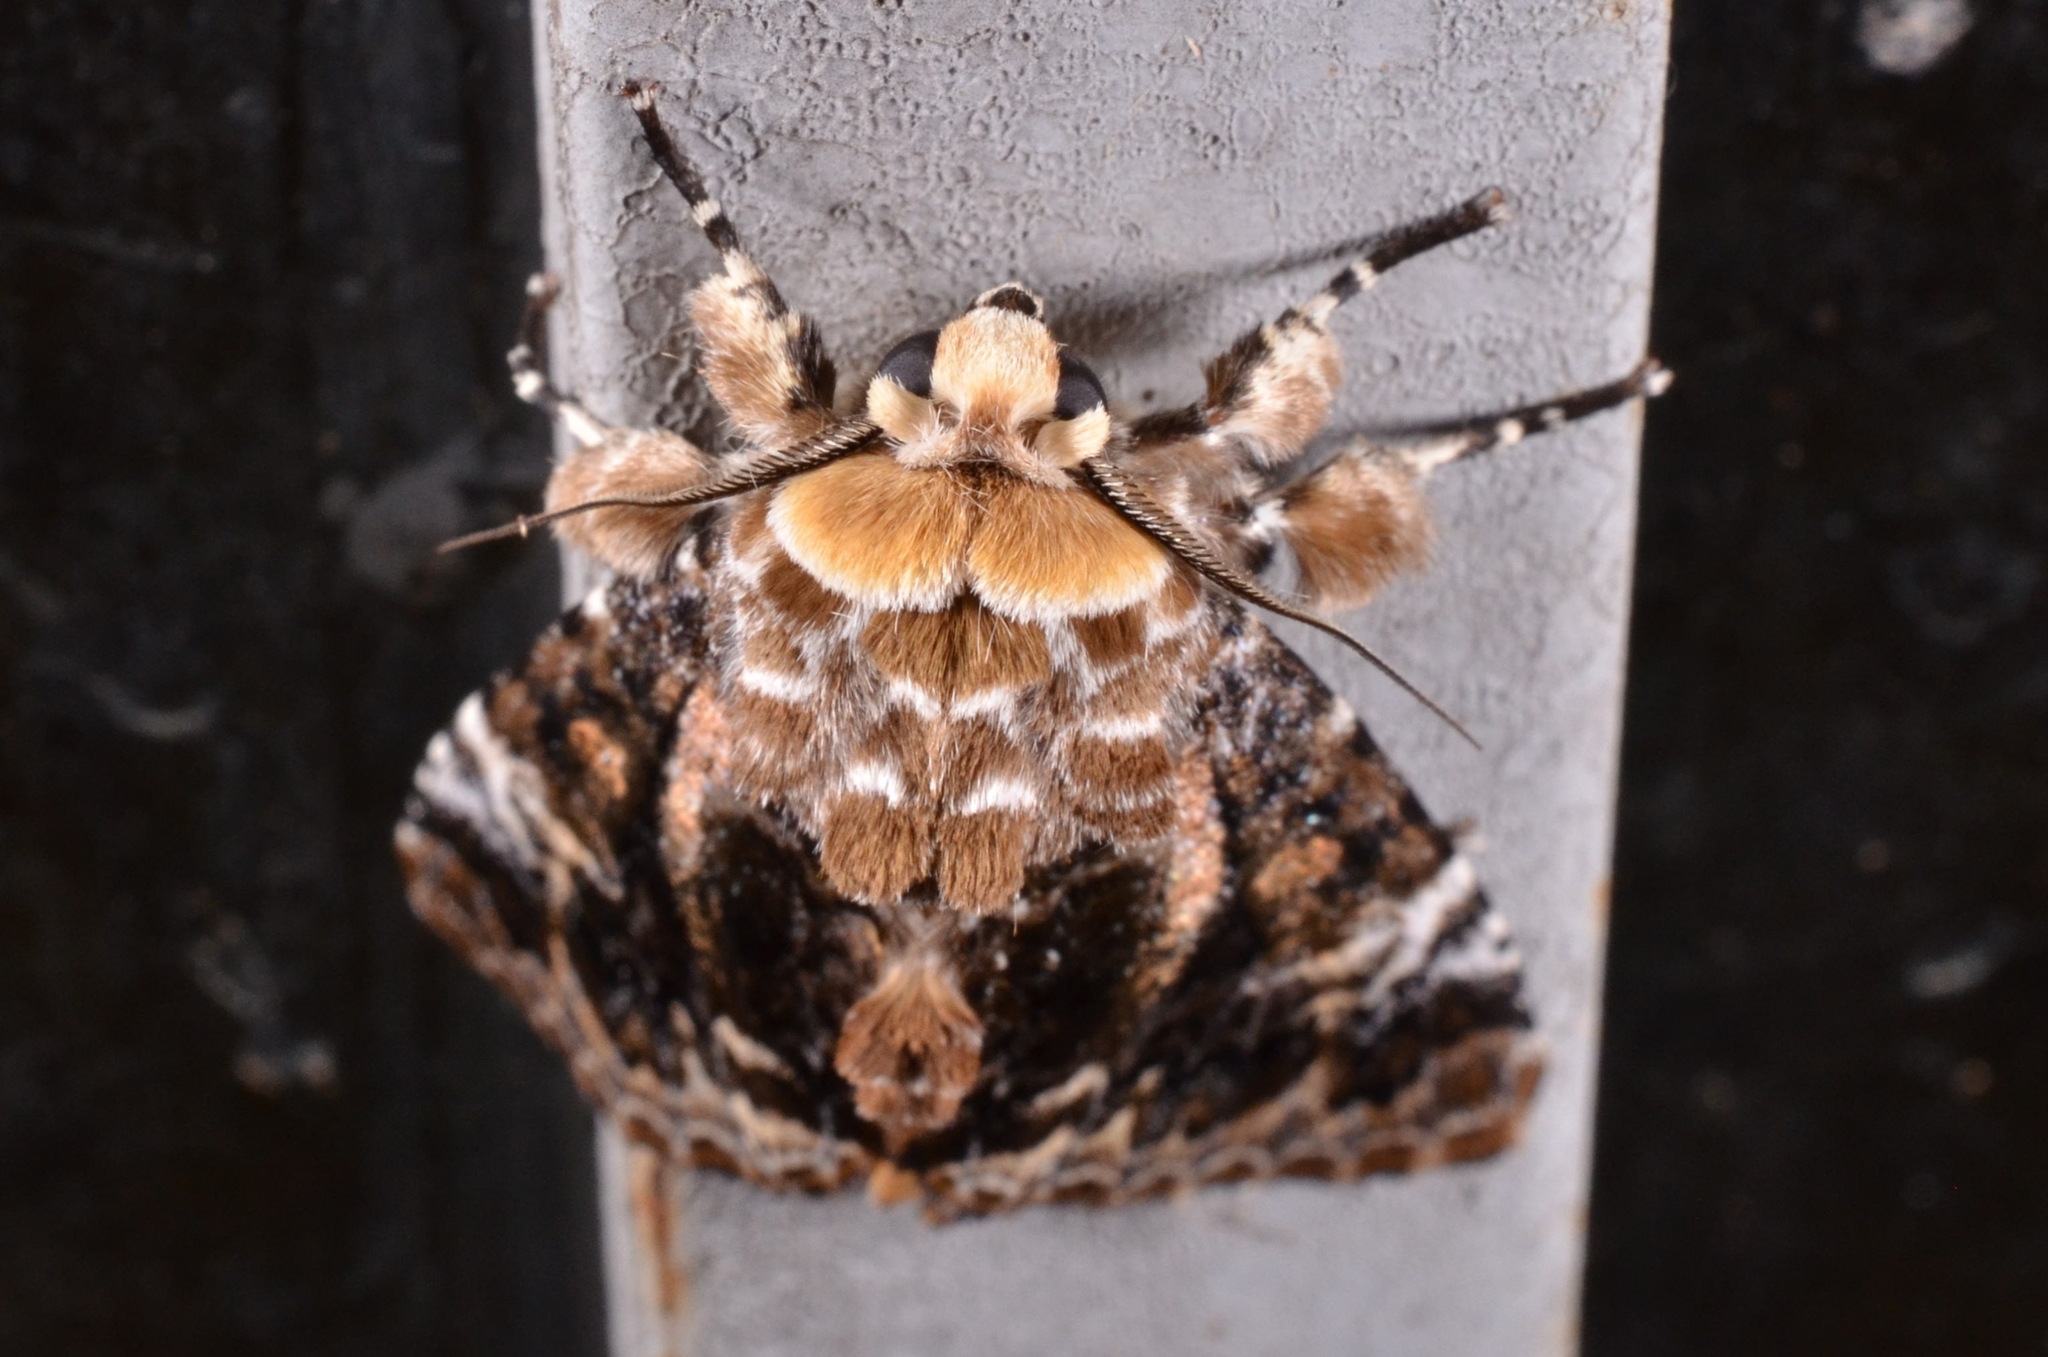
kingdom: Animalia
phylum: Arthropoda
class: Insecta
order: Lepidoptera
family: Noctuidae
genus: Anepholcia
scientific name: Anepholcia pygaria
